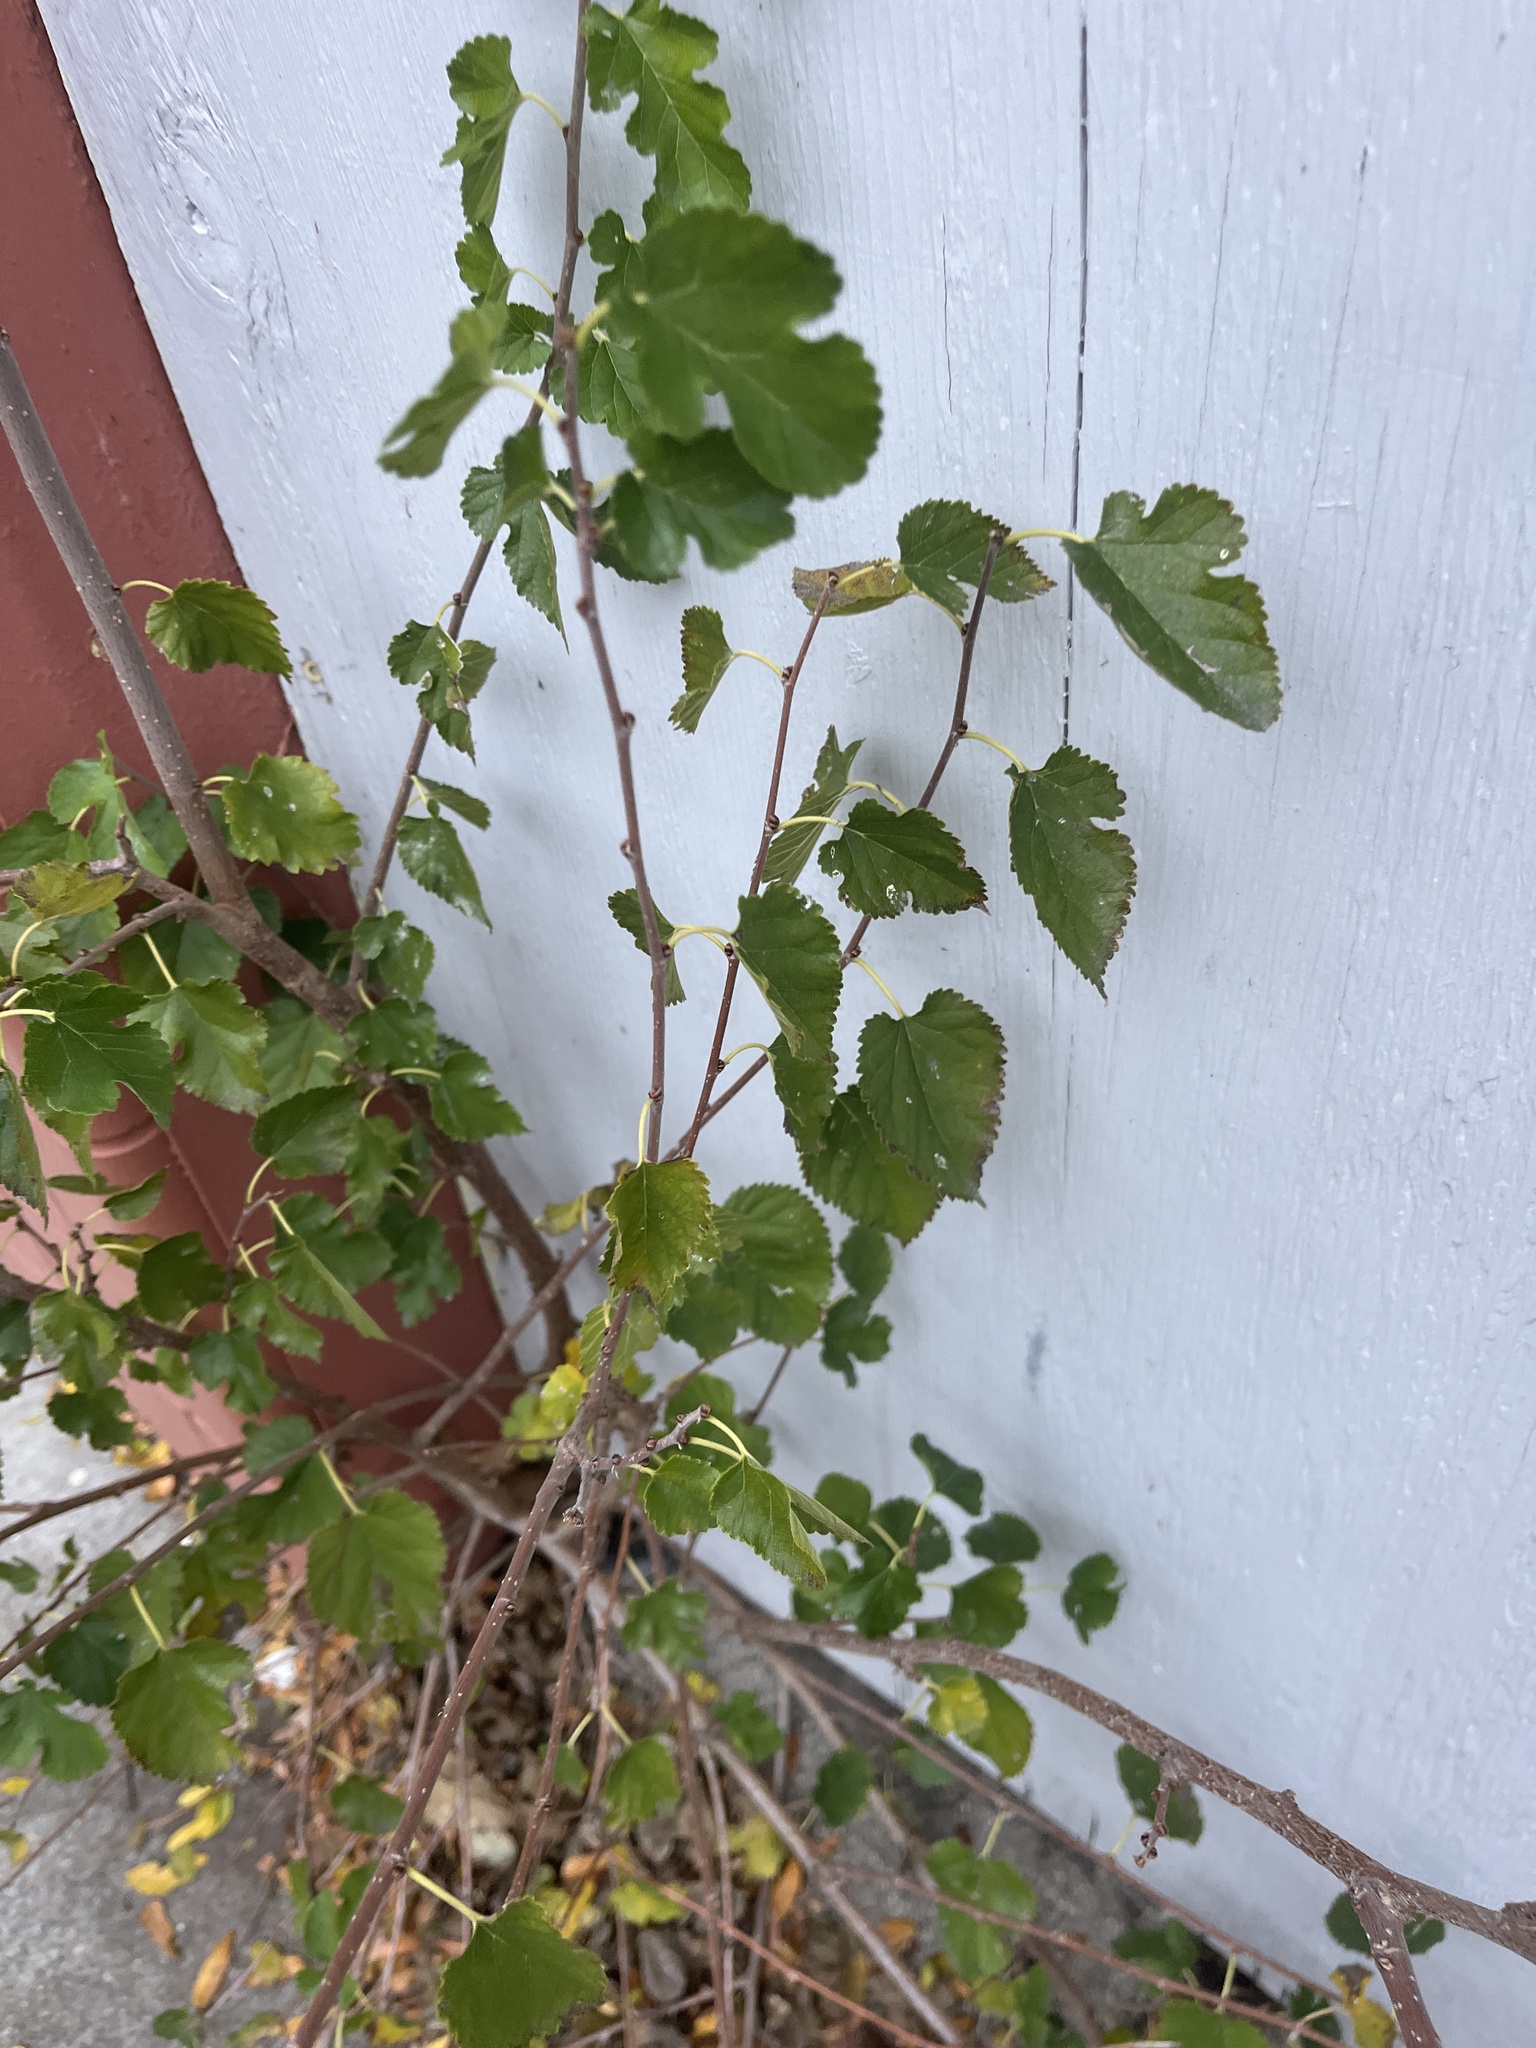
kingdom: Plantae
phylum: Tracheophyta
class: Magnoliopsida
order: Rosales
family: Moraceae
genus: Morus
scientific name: Morus alba
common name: White mulberry
